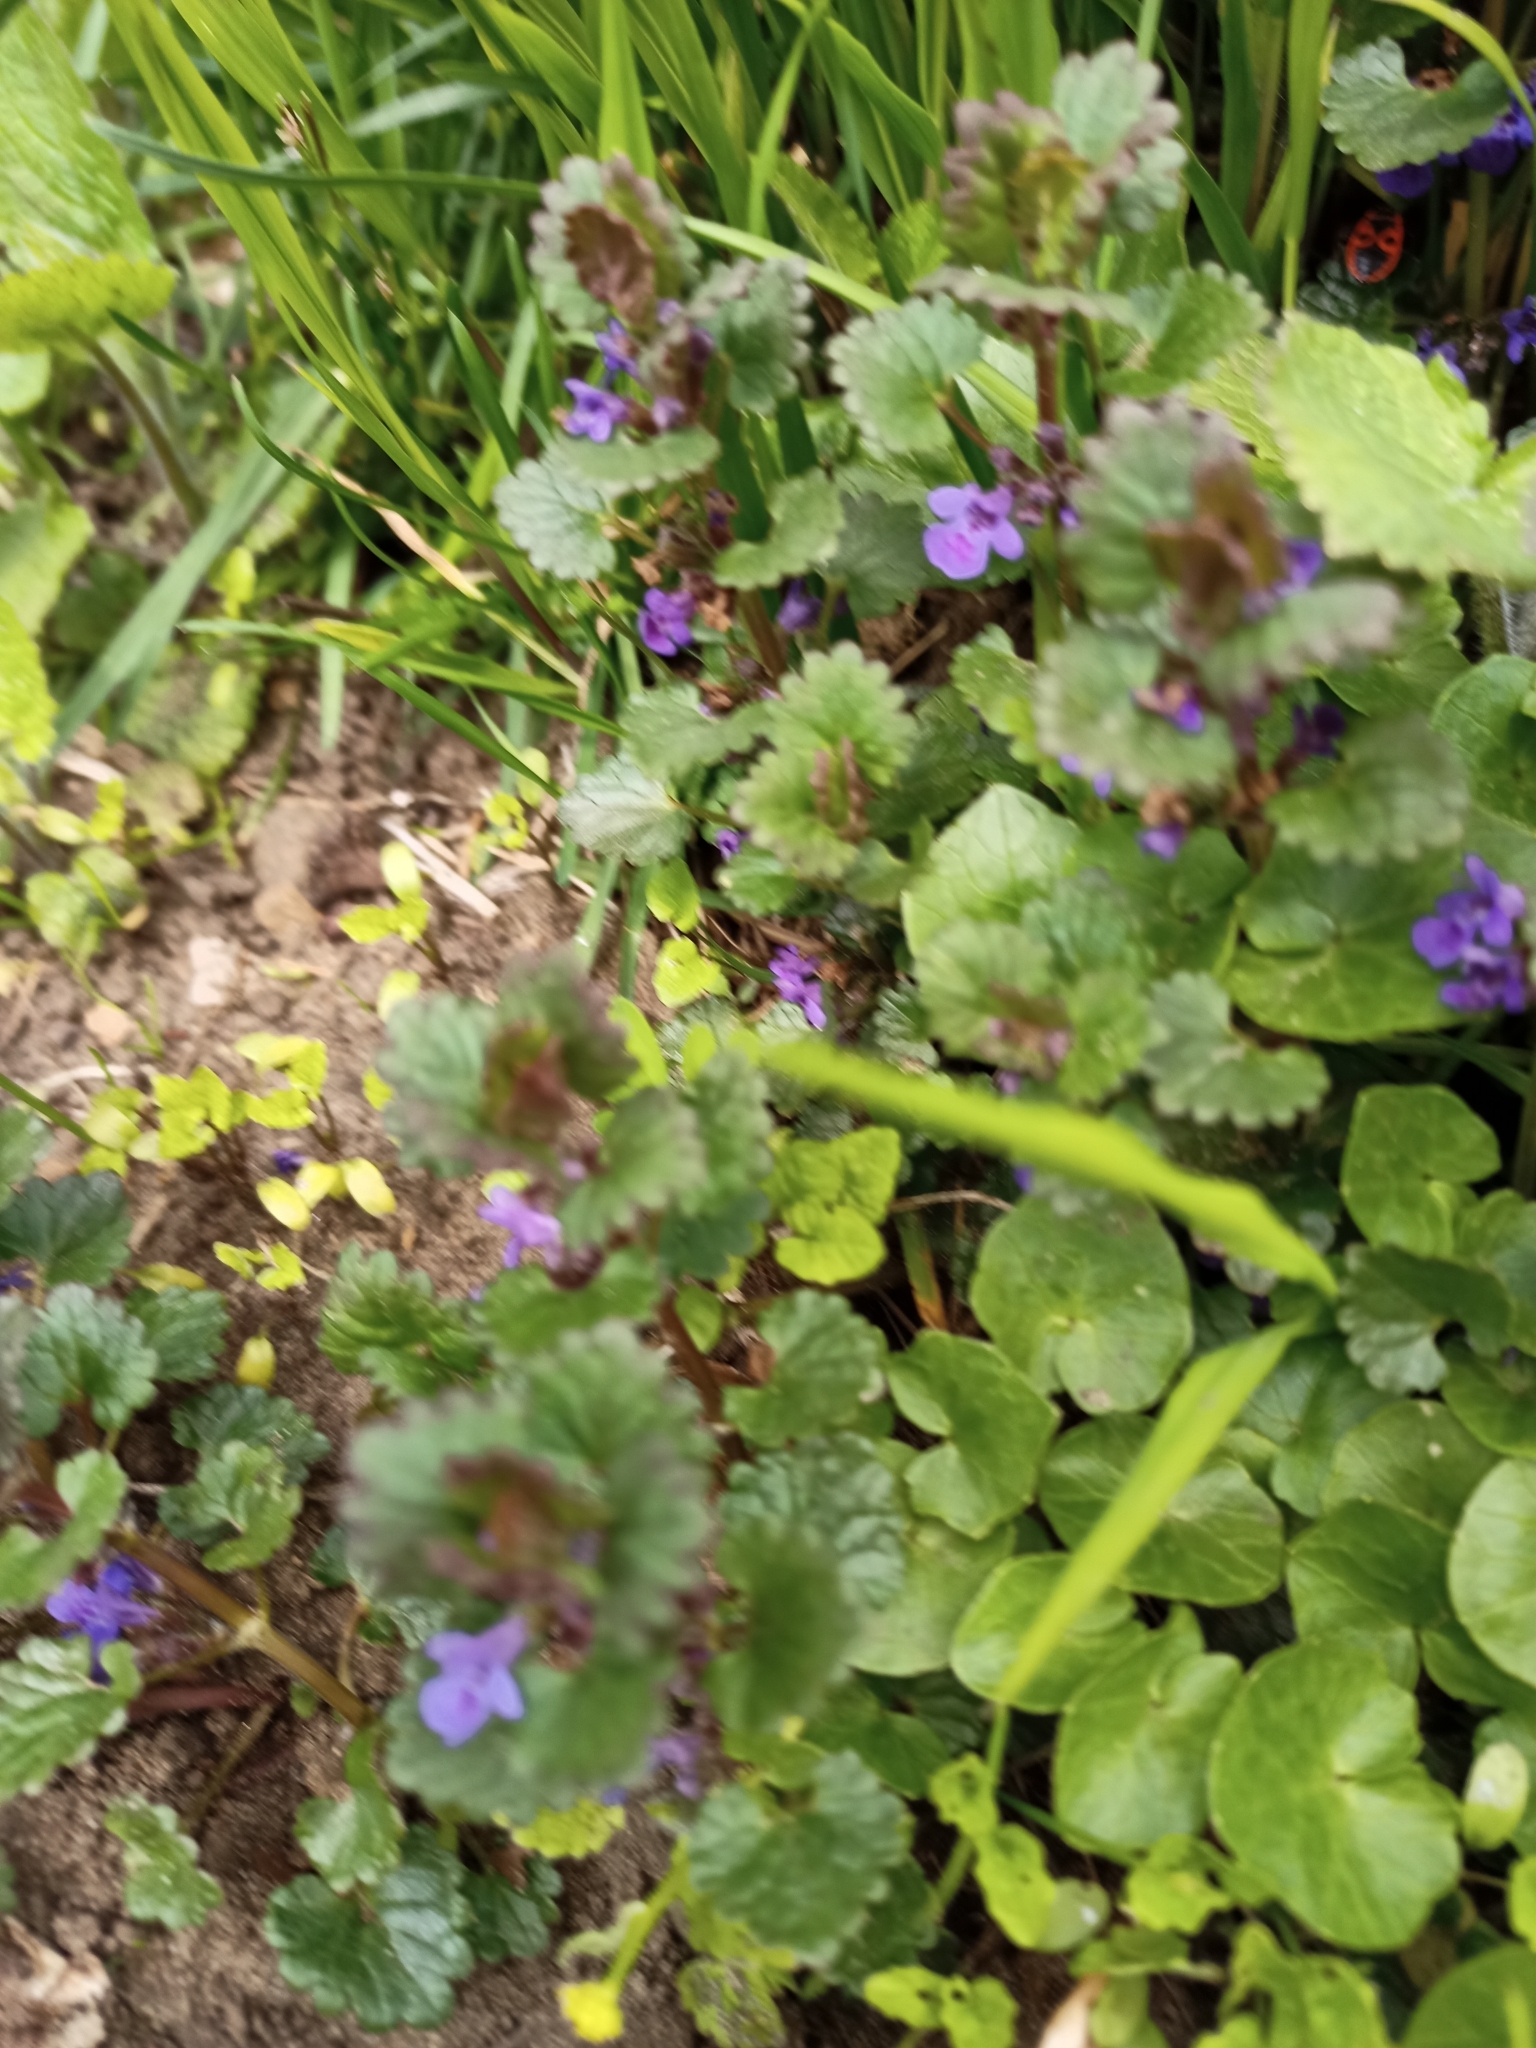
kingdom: Plantae
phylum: Tracheophyta
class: Magnoliopsida
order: Lamiales
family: Lamiaceae
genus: Glechoma
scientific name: Glechoma hederacea
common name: Ground ivy
